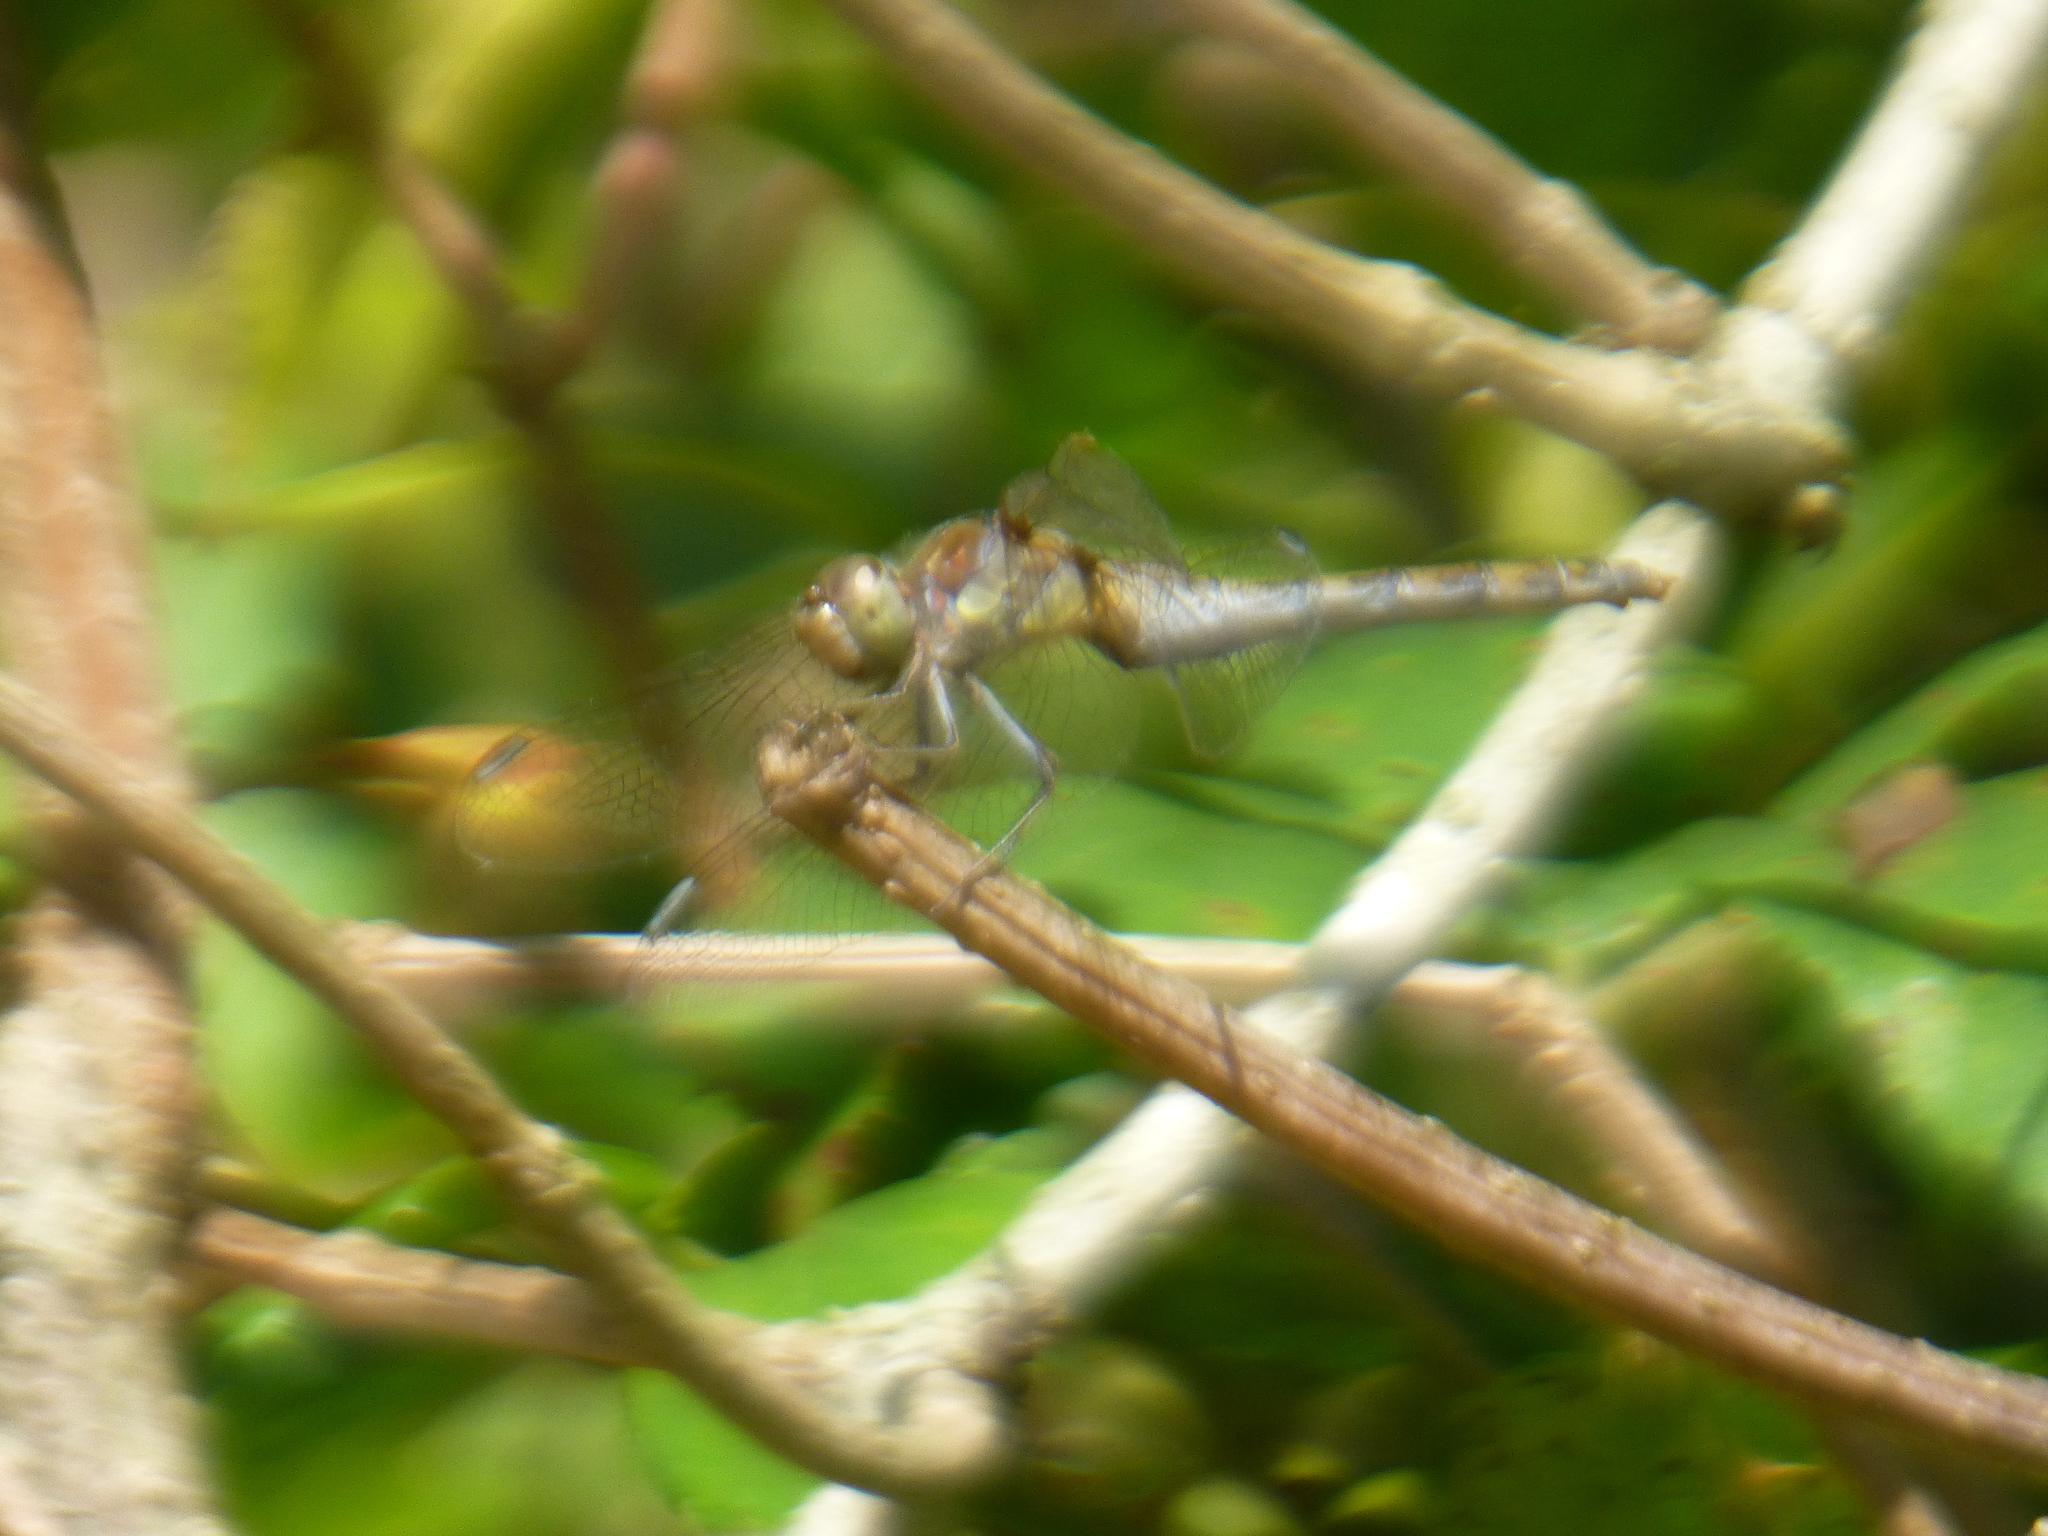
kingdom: Animalia
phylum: Arthropoda
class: Insecta
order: Odonata
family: Libellulidae
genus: Sympetrum
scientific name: Sympetrum striolatum
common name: Common darter
